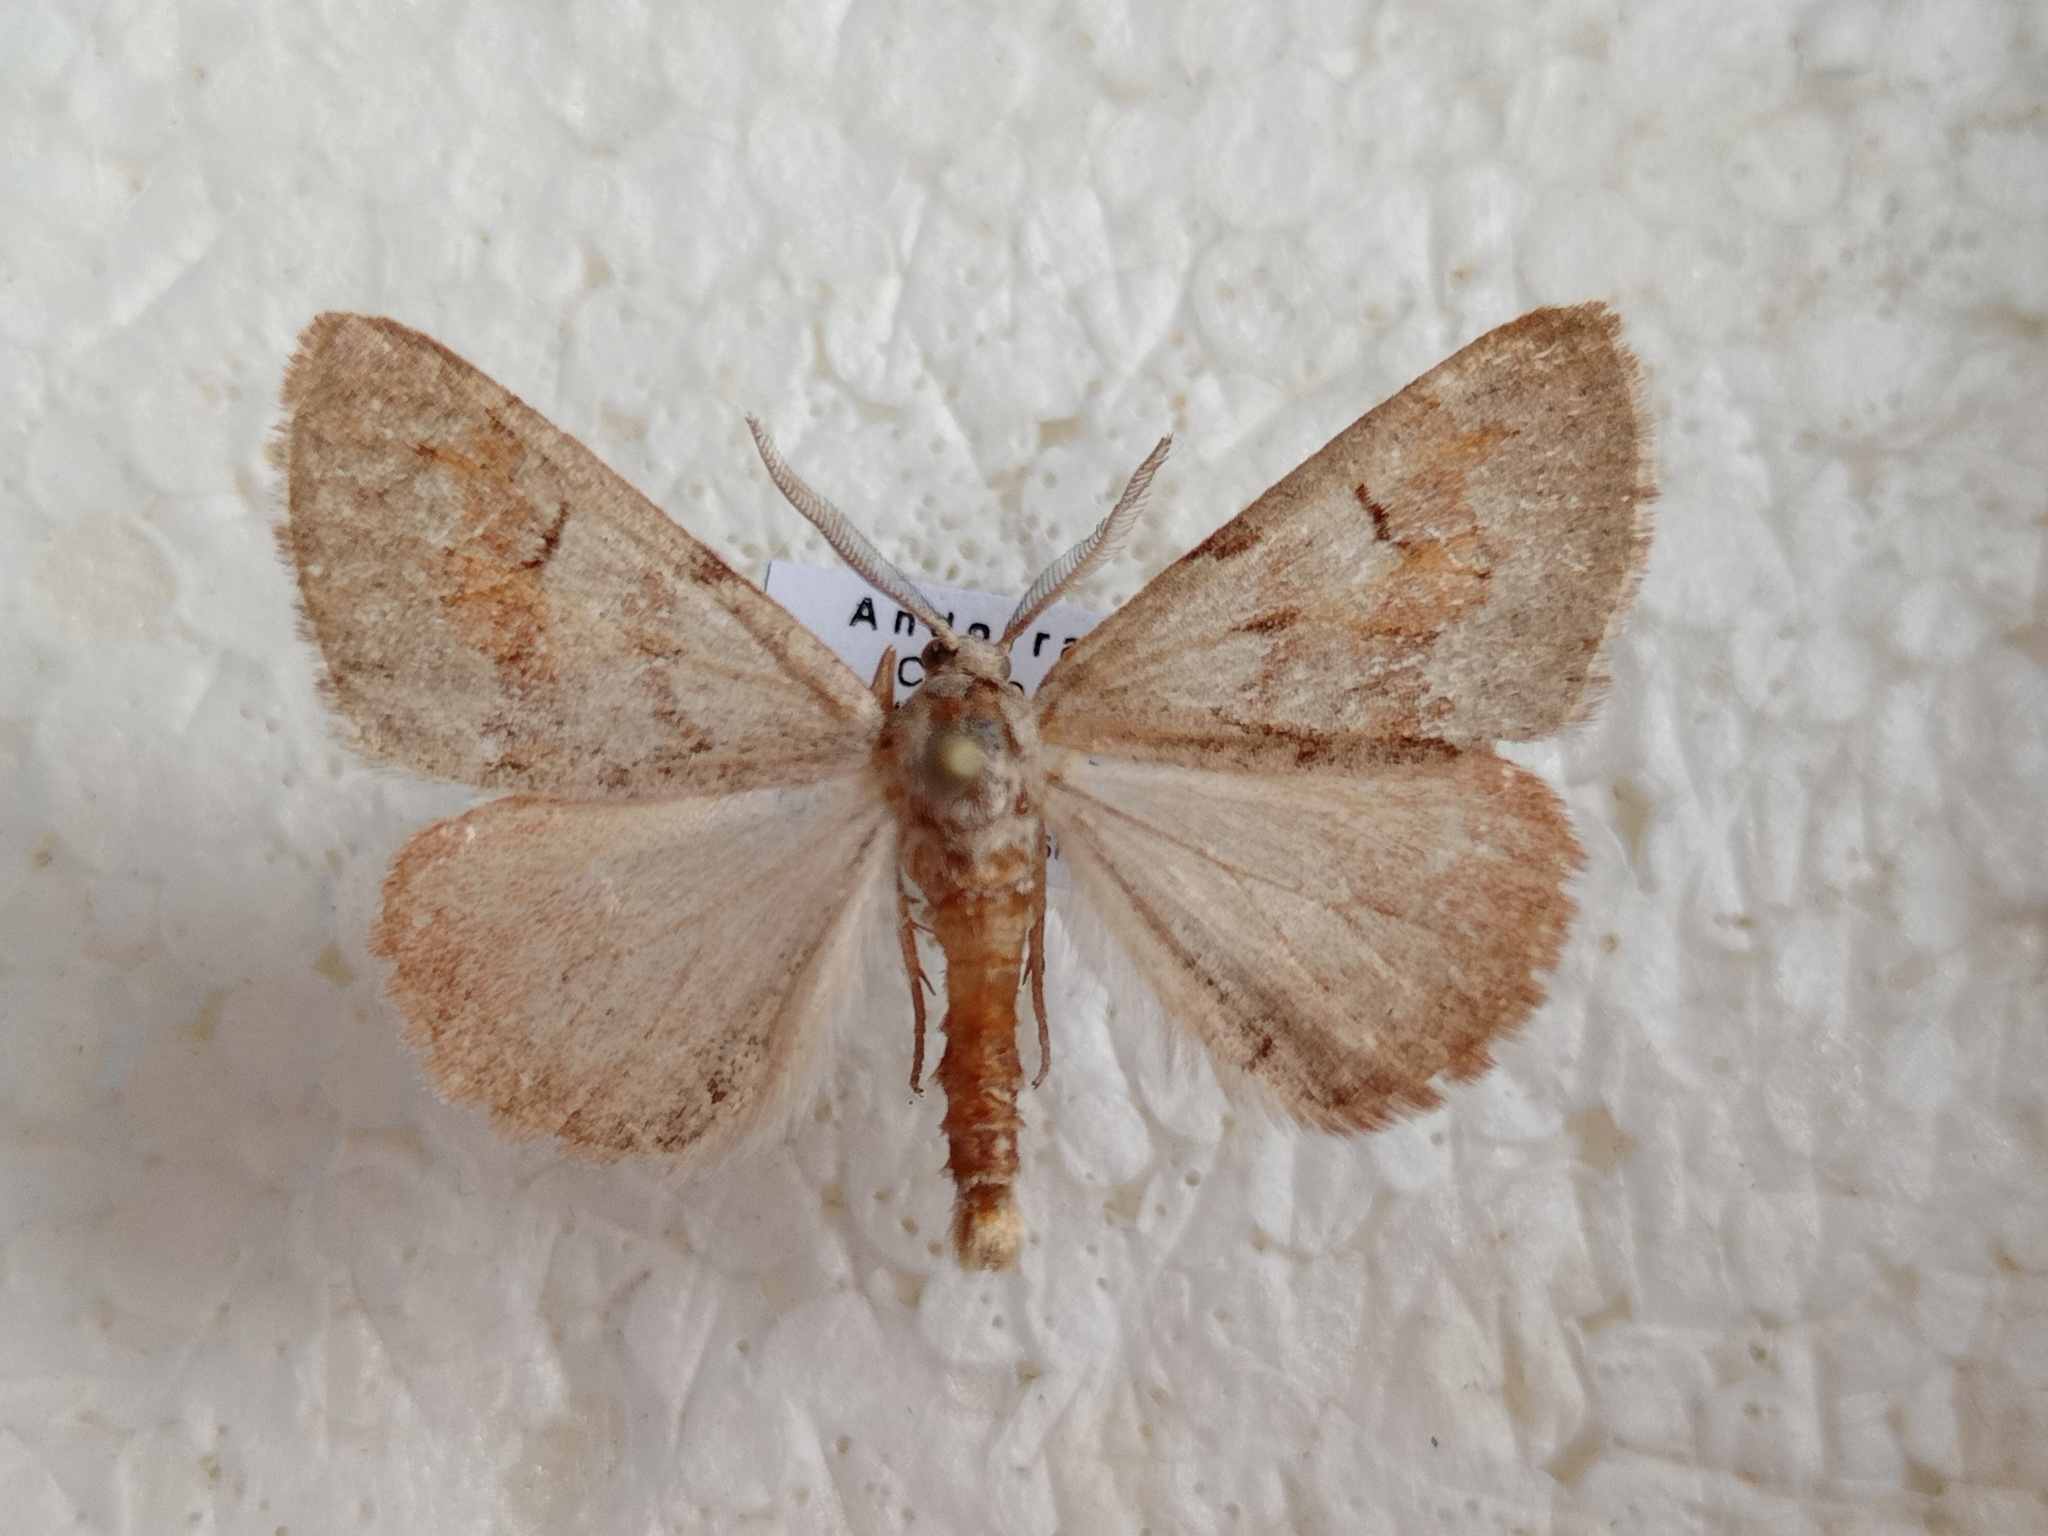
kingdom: Animalia
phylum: Arthropoda
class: Insecta
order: Lepidoptera
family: Geometridae
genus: Adalbertia
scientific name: Adalbertia castiliaria
